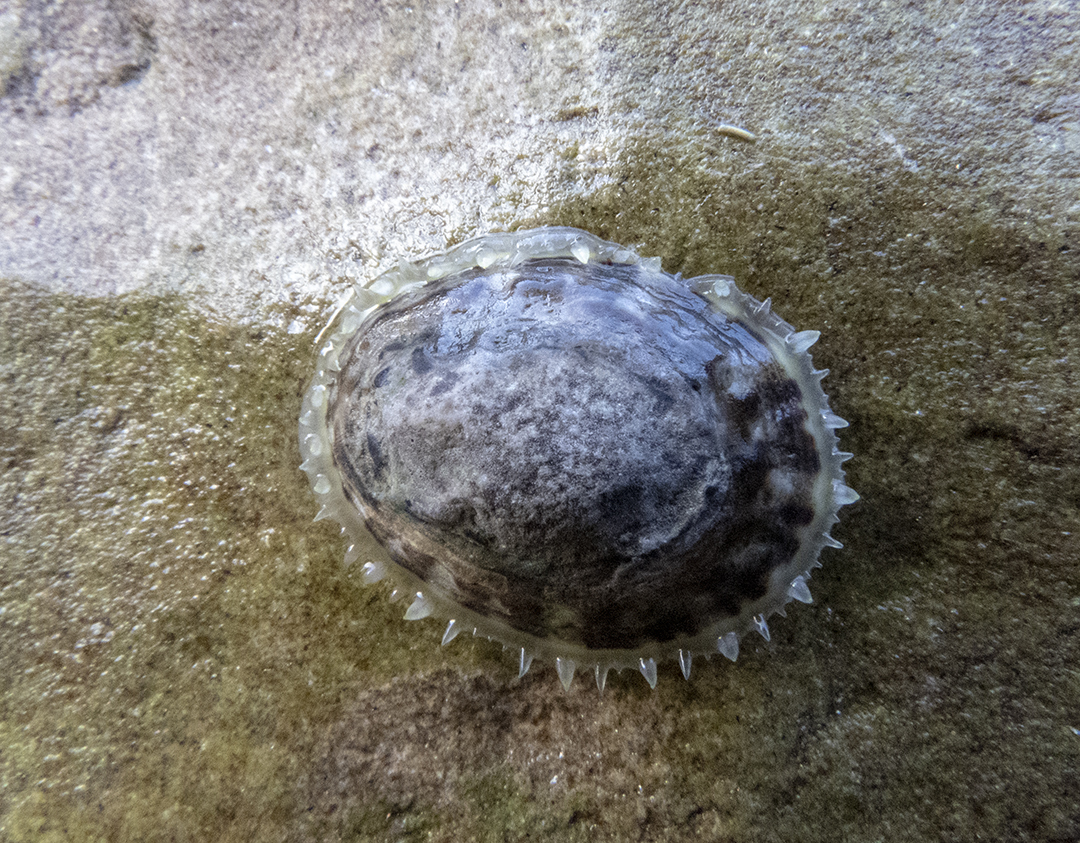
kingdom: Animalia
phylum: Mollusca
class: Gastropoda
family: Nacellidae
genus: Cellana
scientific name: Cellana radians
